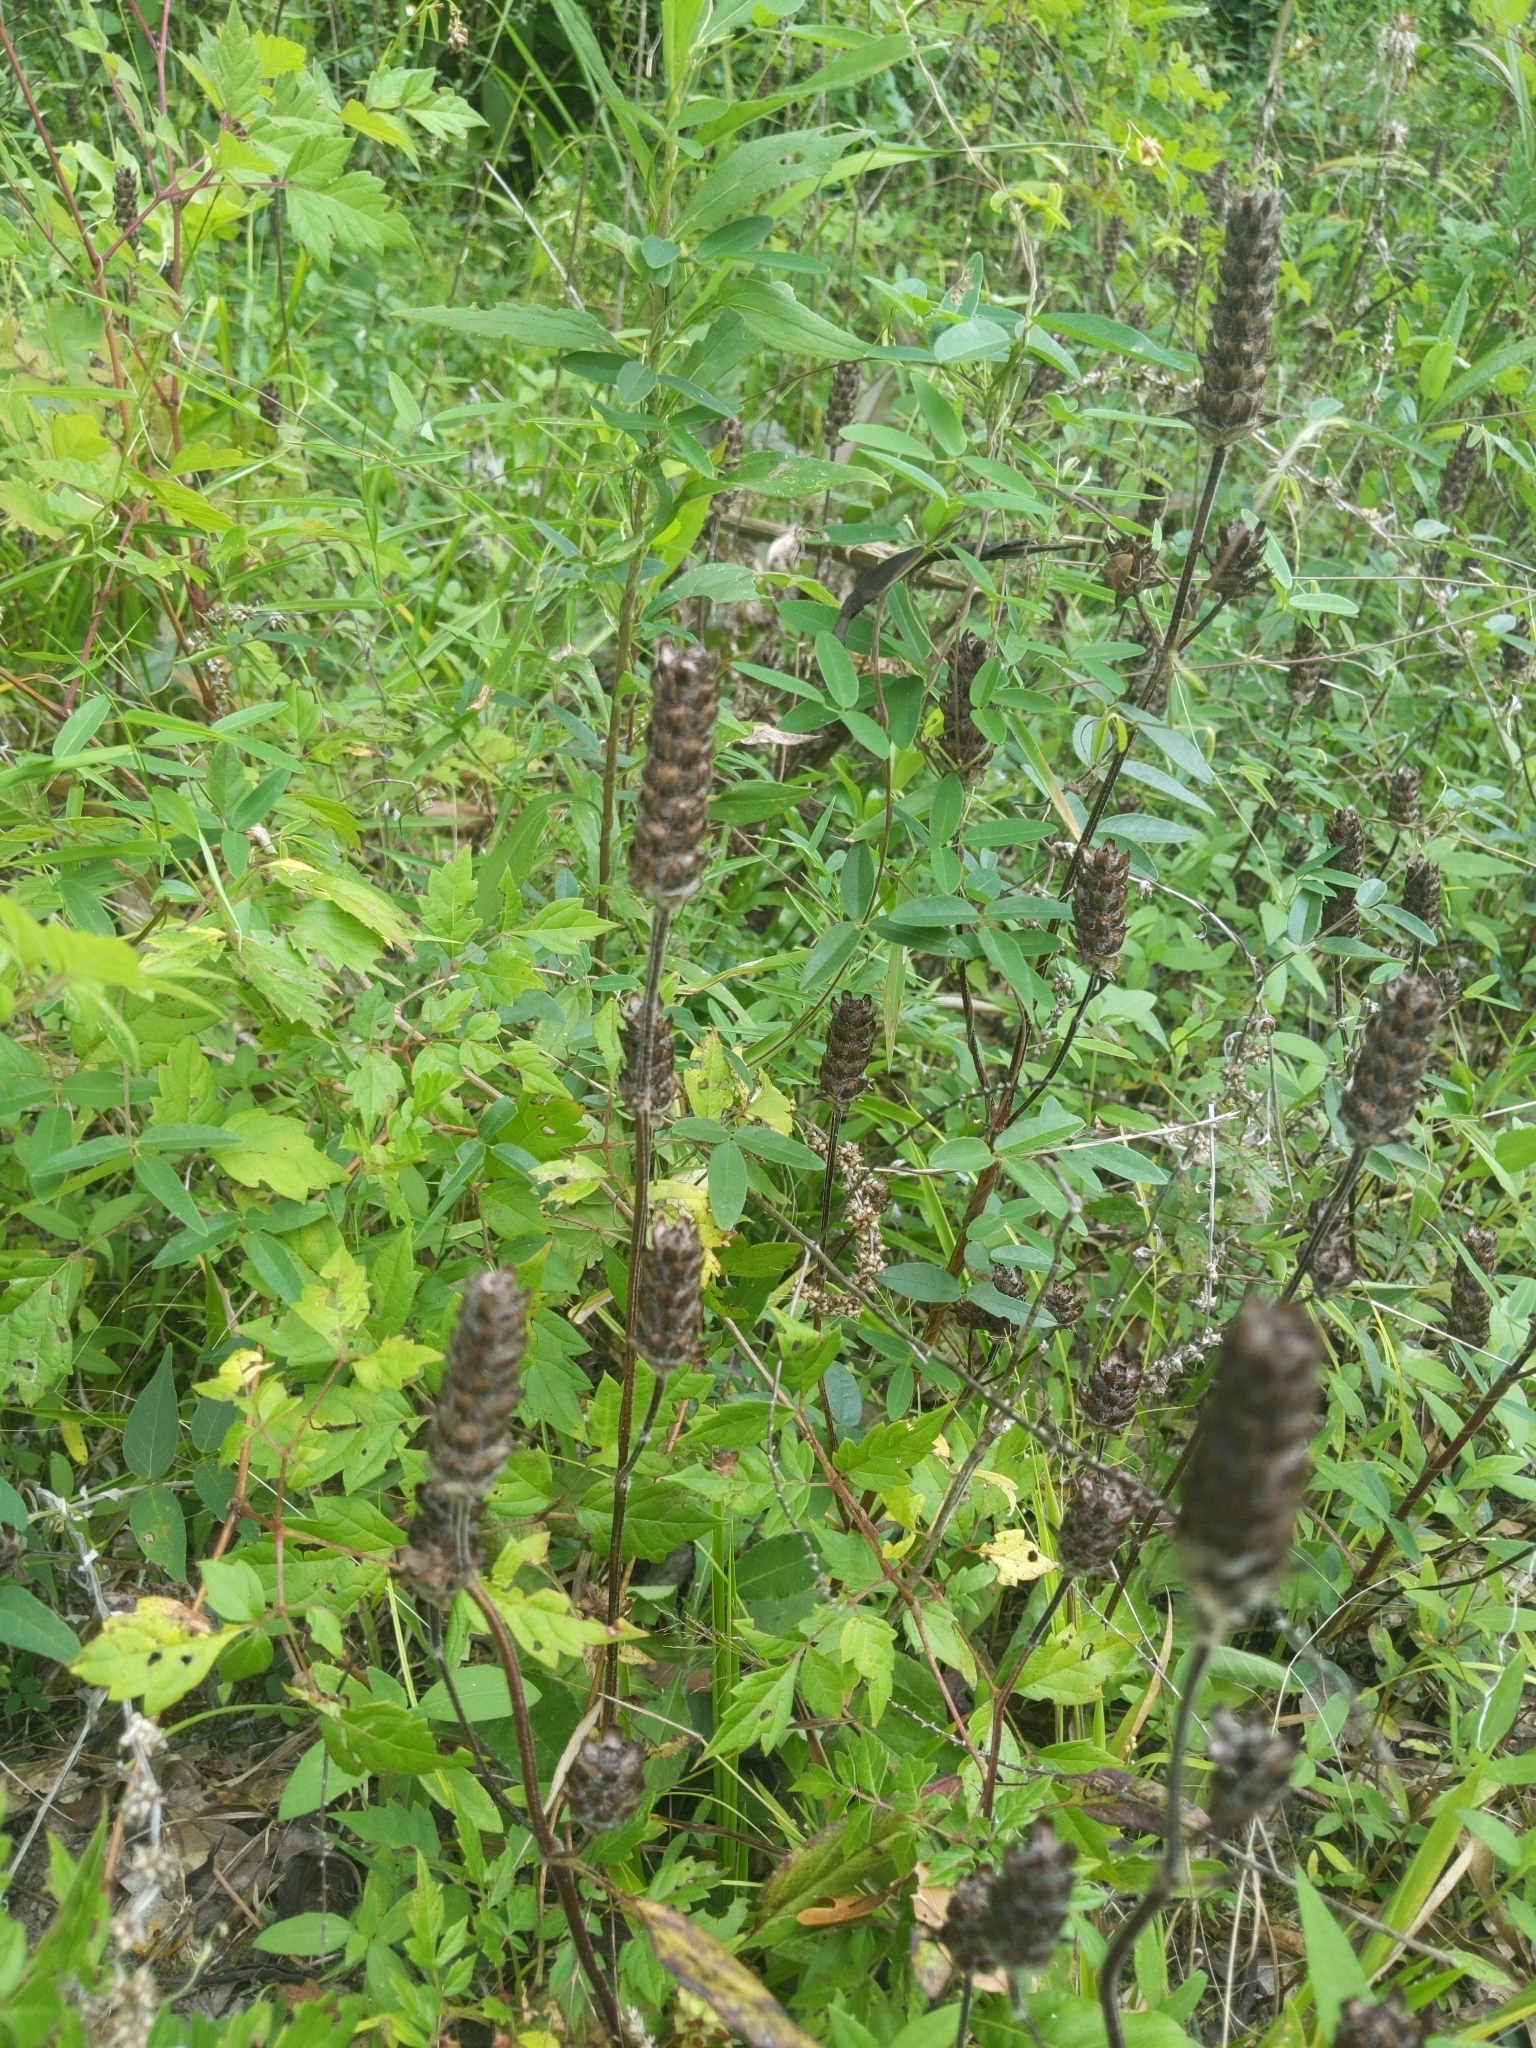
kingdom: Plantae
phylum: Tracheophyta
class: Magnoliopsida
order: Lamiales
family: Lamiaceae
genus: Prunella
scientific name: Prunella vulgaris
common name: Heal-all
